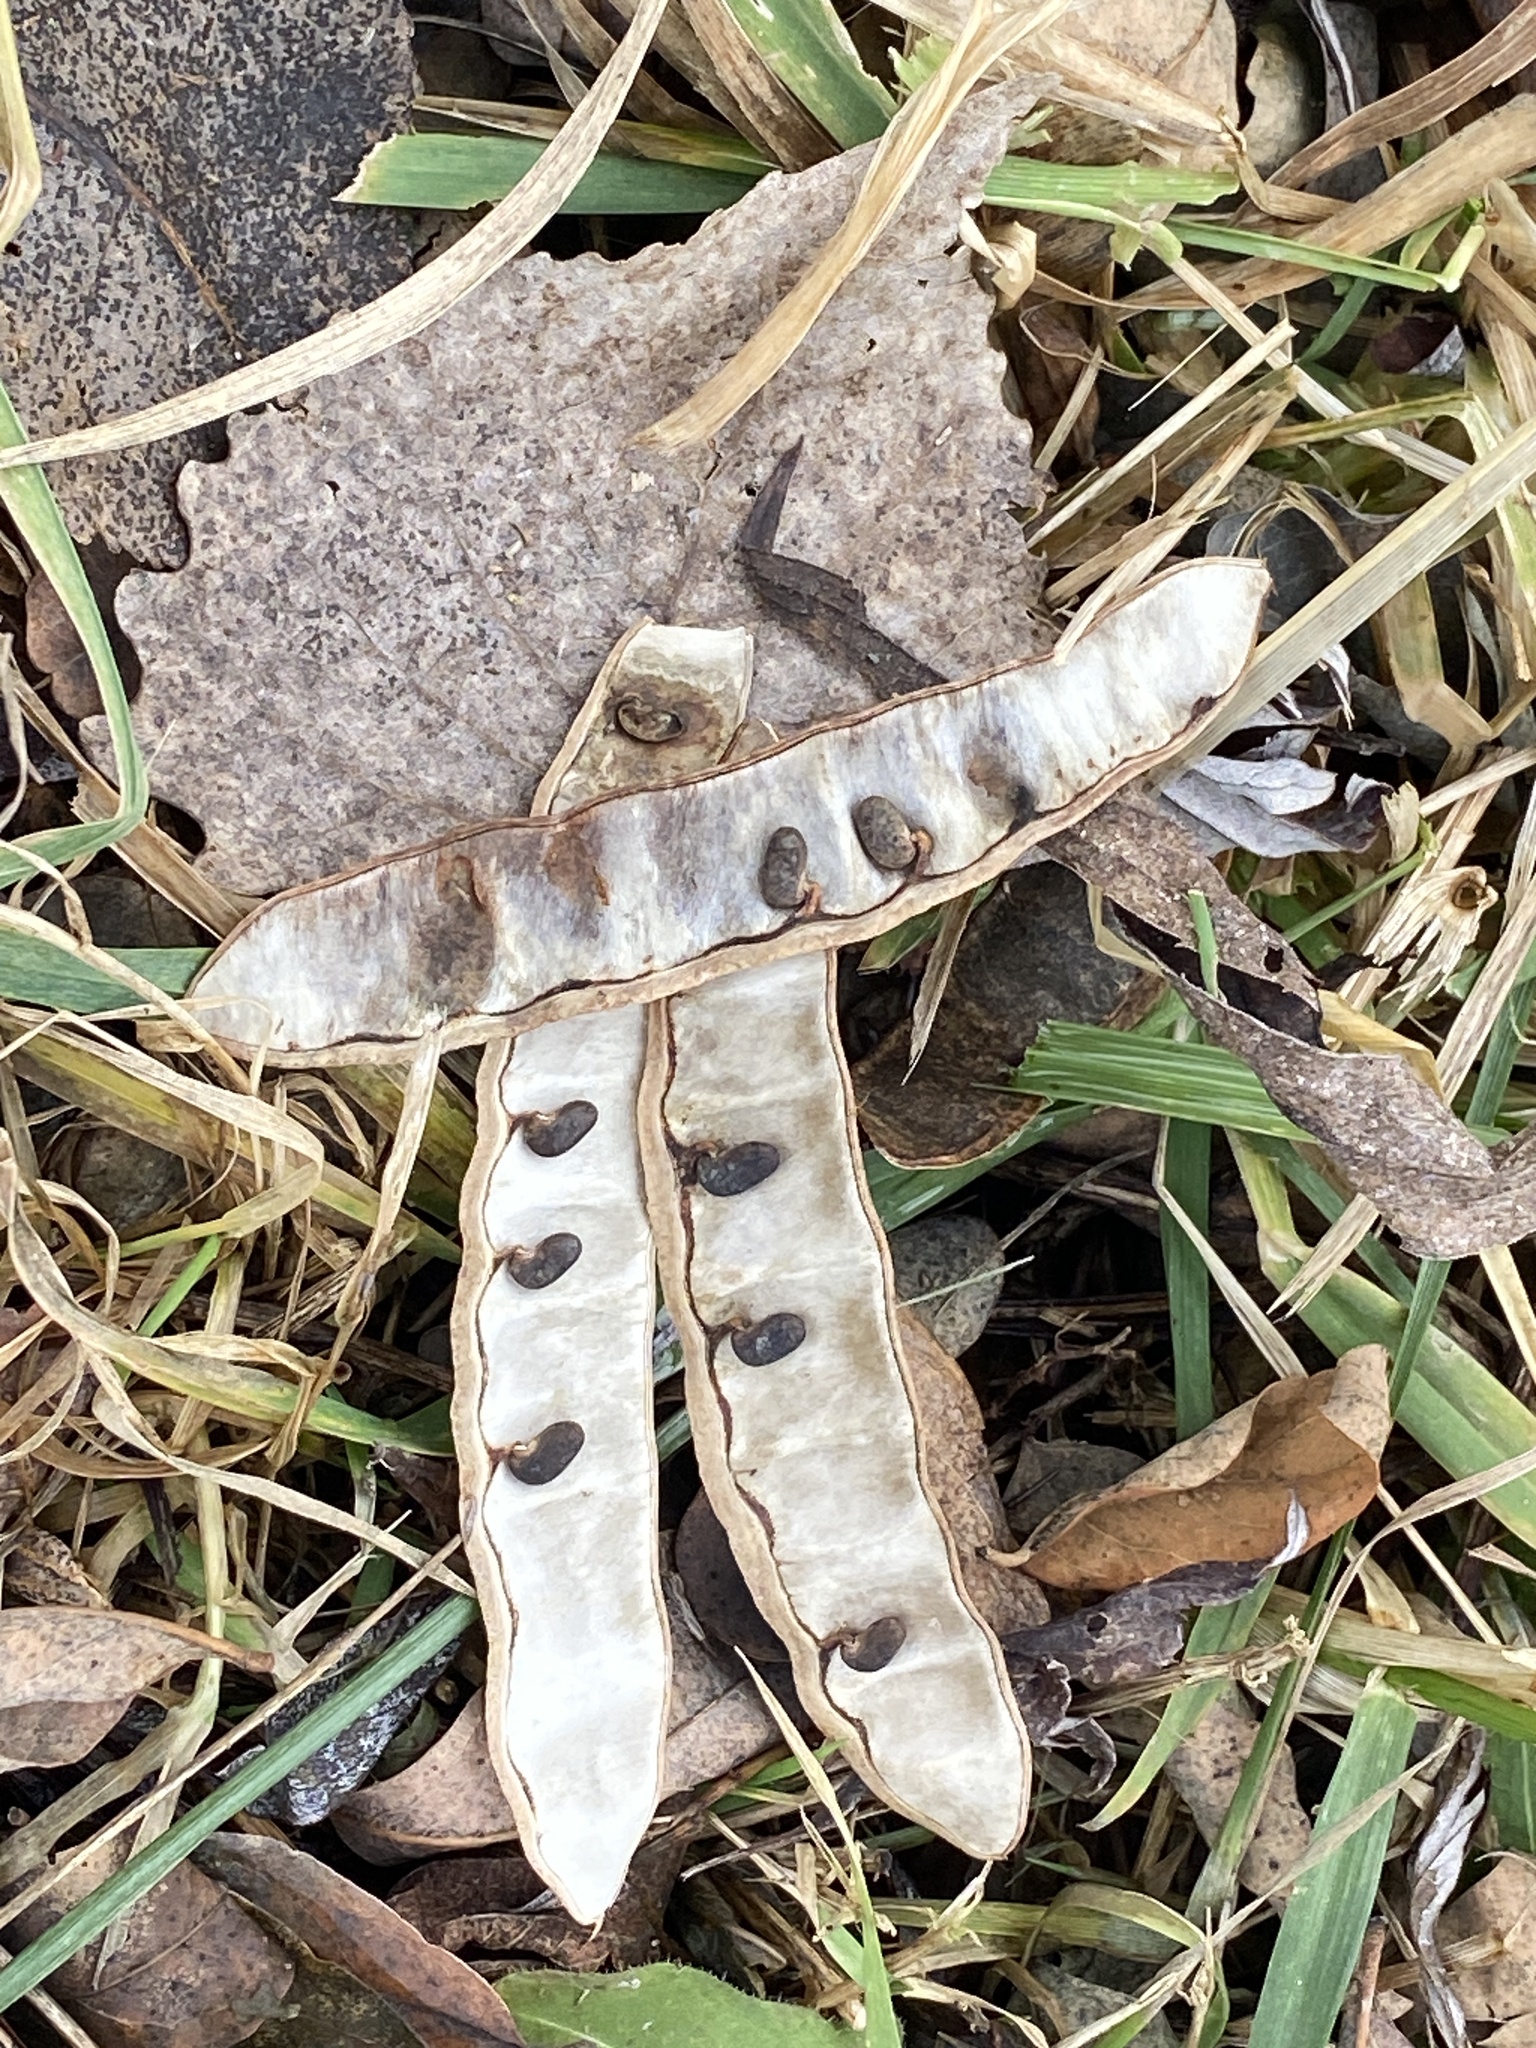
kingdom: Plantae
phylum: Tracheophyta
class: Magnoliopsida
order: Fabales
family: Fabaceae
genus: Robinia
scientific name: Robinia pseudoacacia
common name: Black locust
